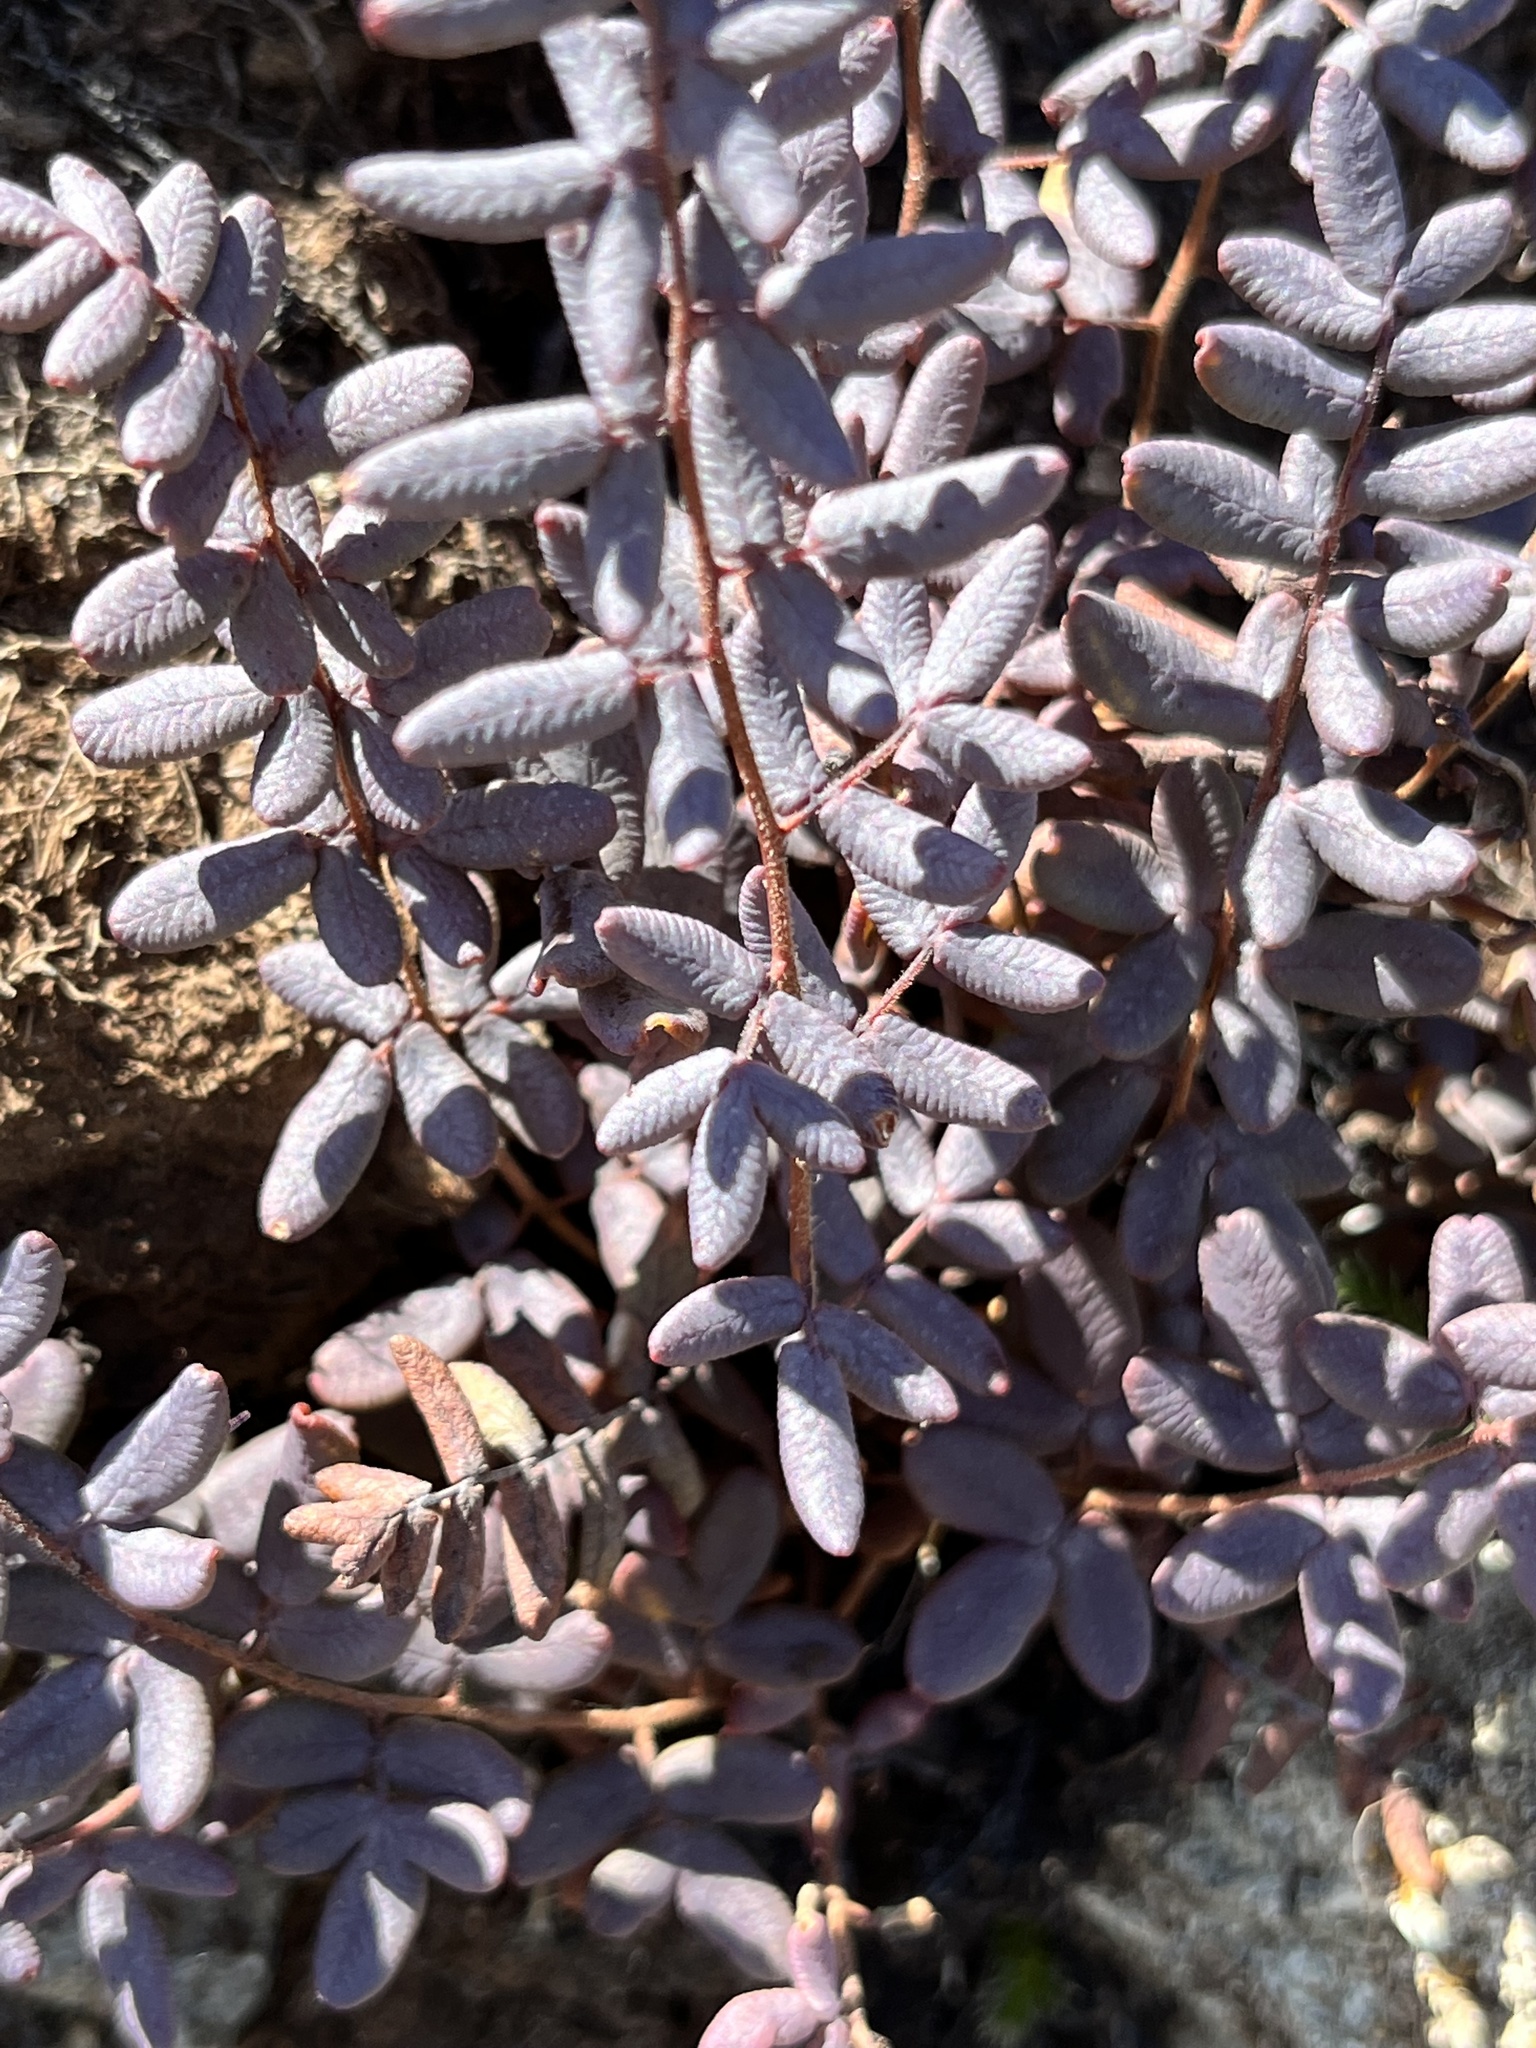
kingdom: Plantae
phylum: Tracheophyta
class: Polypodiopsida
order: Polypodiales
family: Pteridaceae
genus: Pellaea
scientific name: Pellaea andromedifolia
